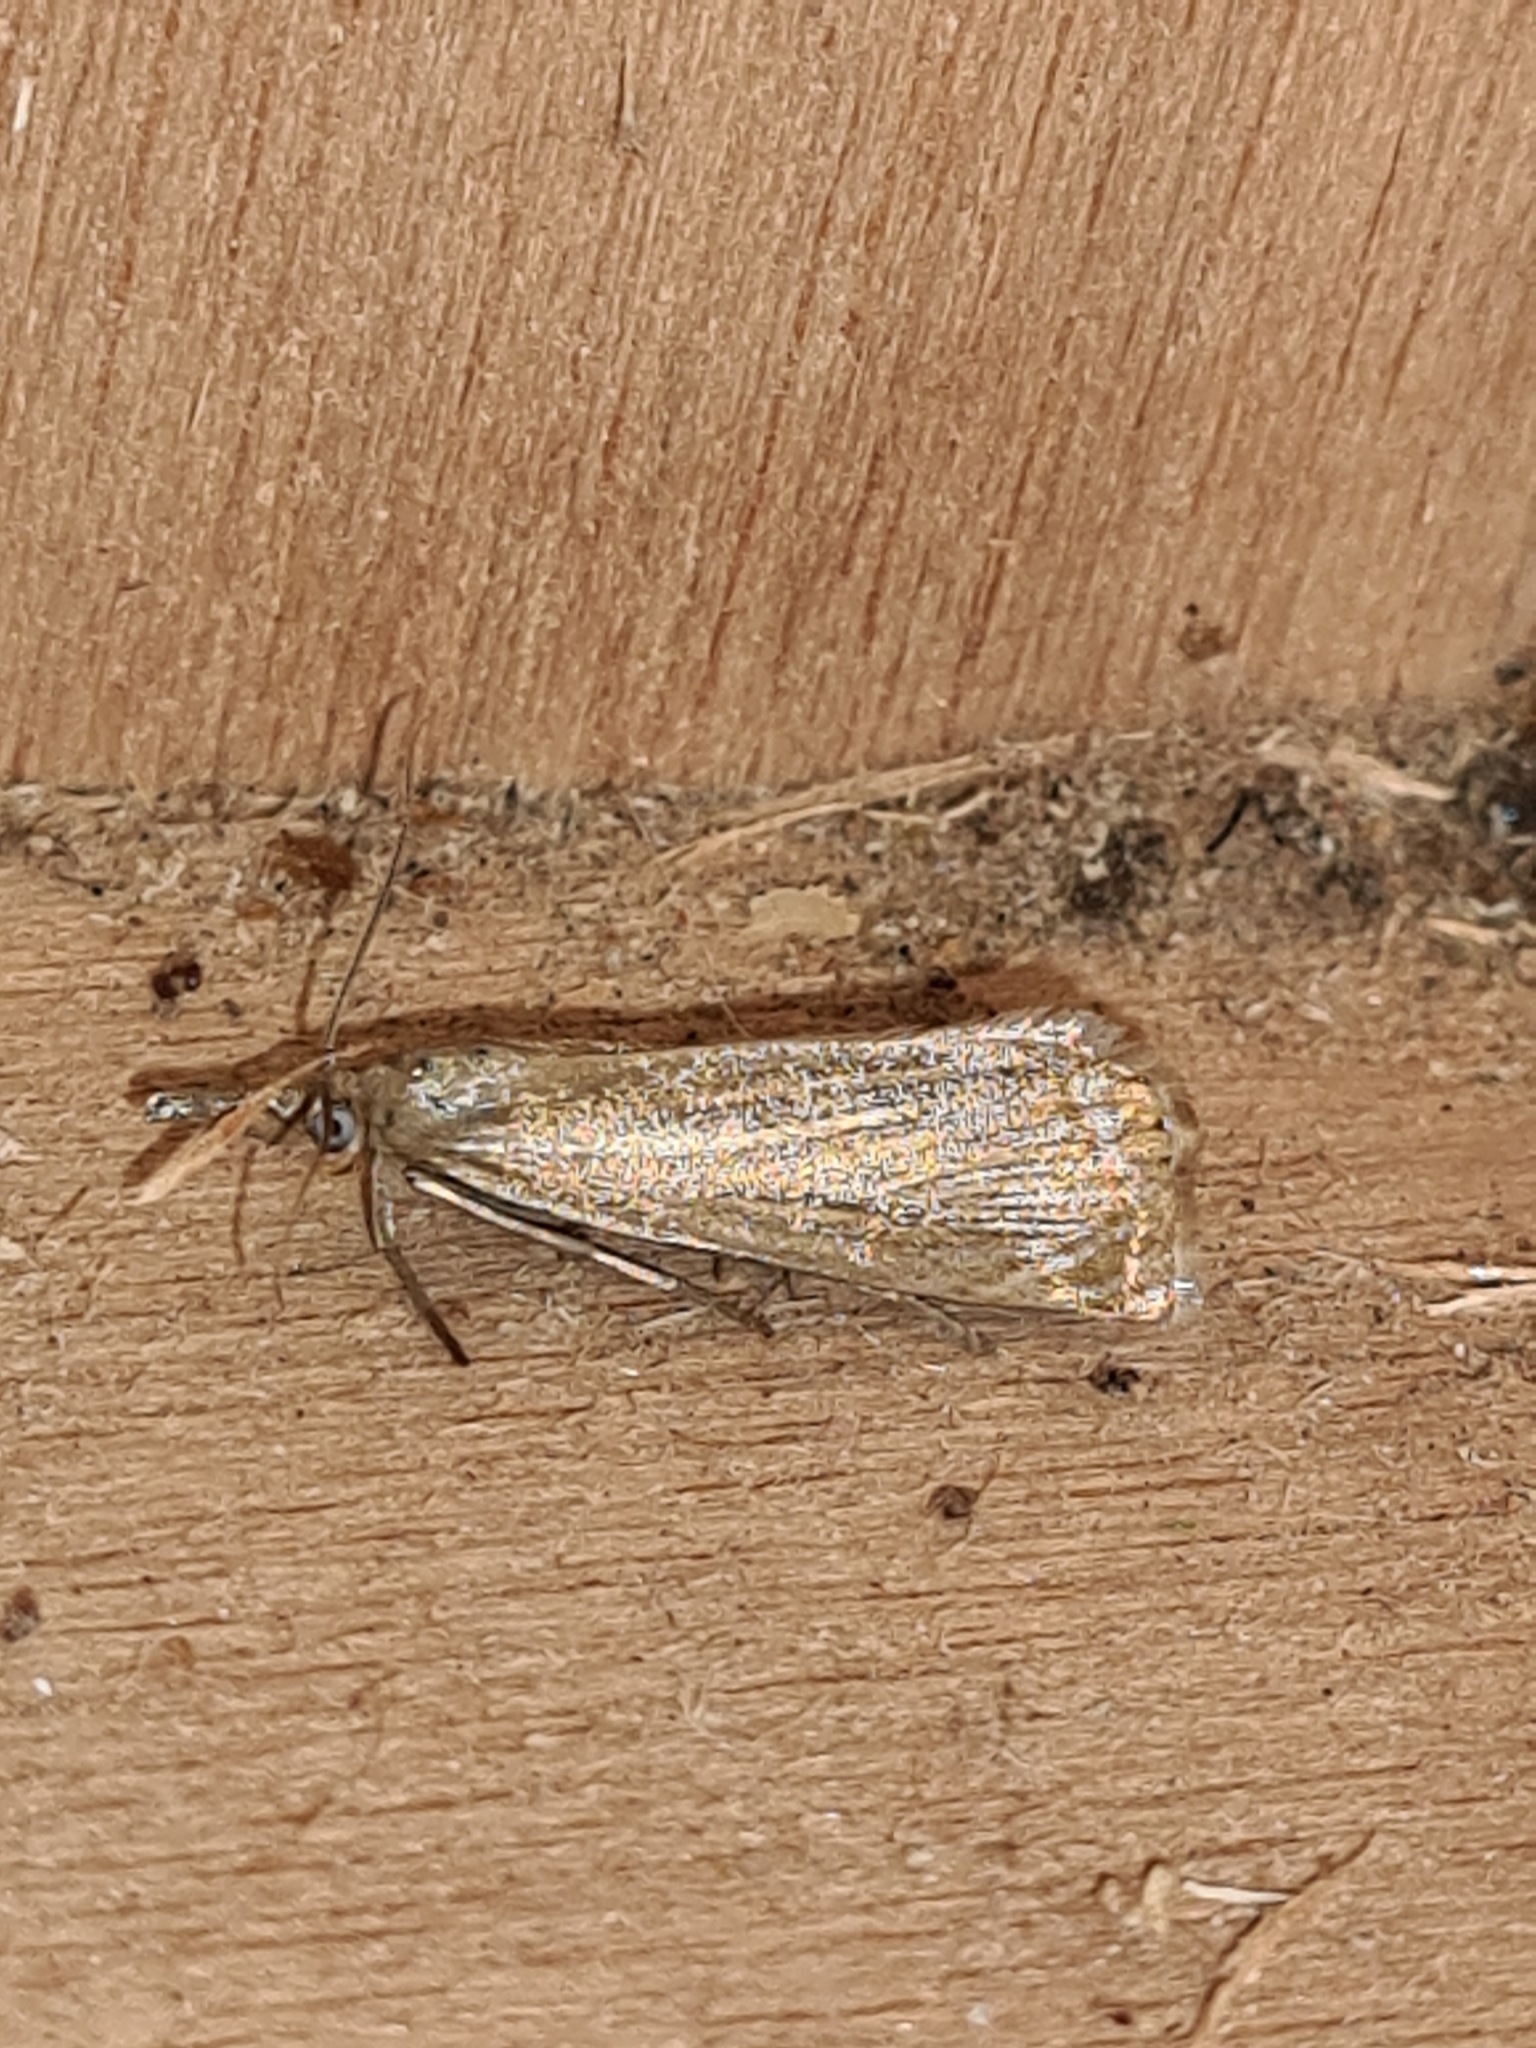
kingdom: Animalia
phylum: Arthropoda
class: Insecta
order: Lepidoptera
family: Crambidae
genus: Chrysoteuchia
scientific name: Chrysoteuchia culmella
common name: Garden grass-veneer
